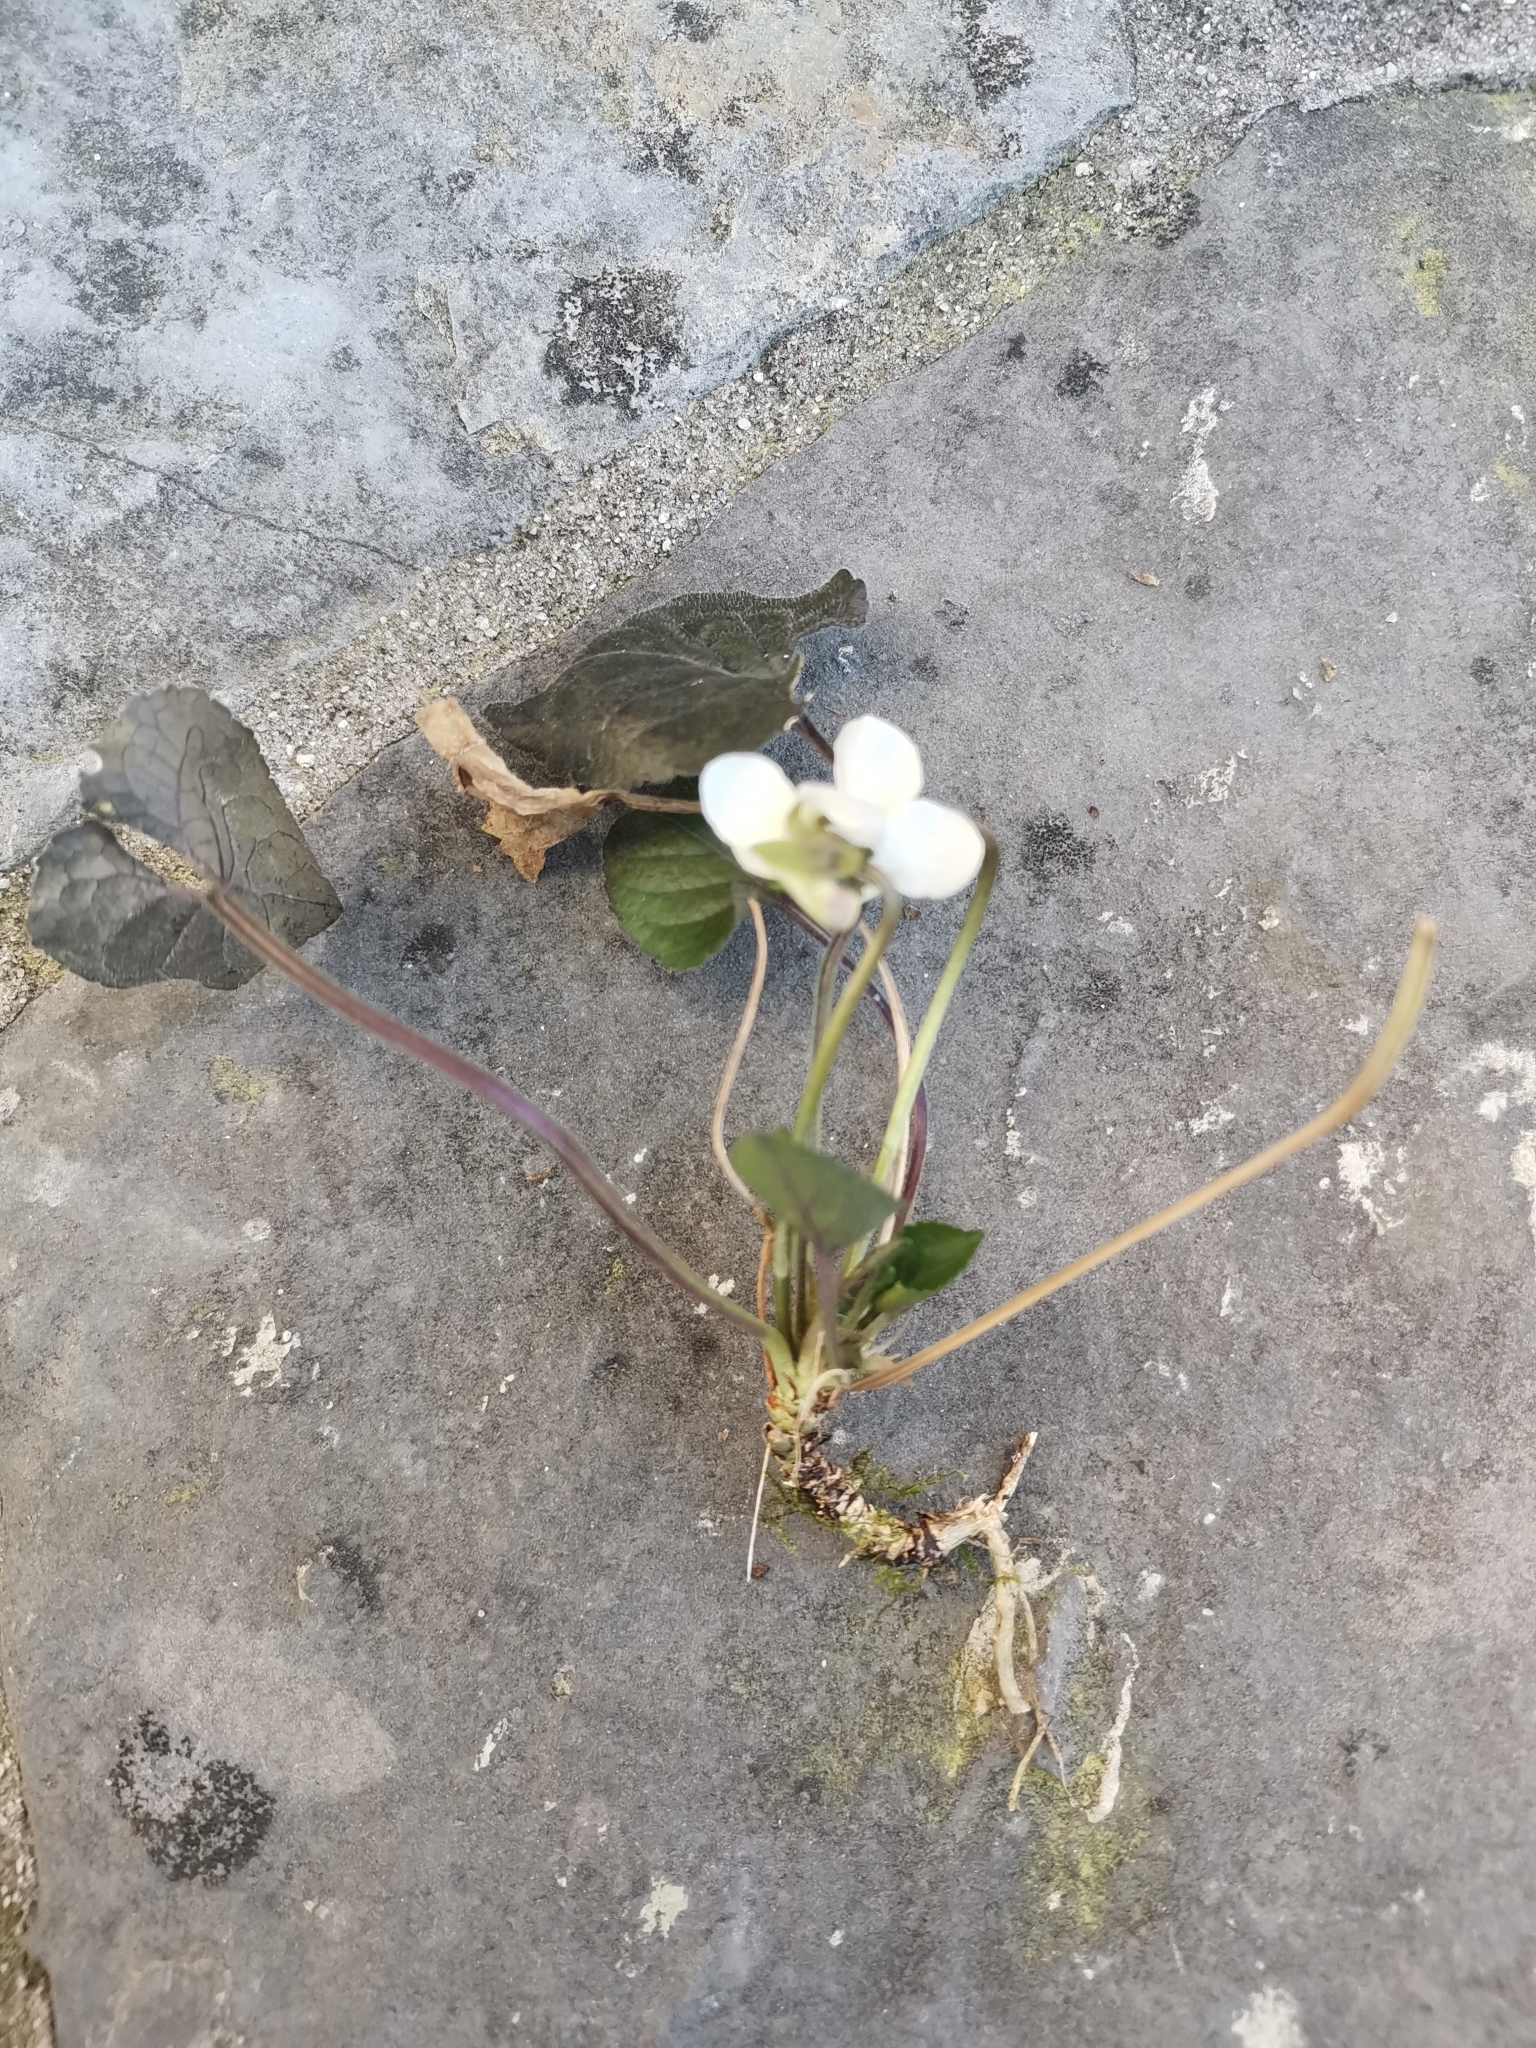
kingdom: Plantae
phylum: Tracheophyta
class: Magnoliopsida
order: Malpighiales
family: Violaceae
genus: Viola
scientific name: Viola alba
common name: White violet
